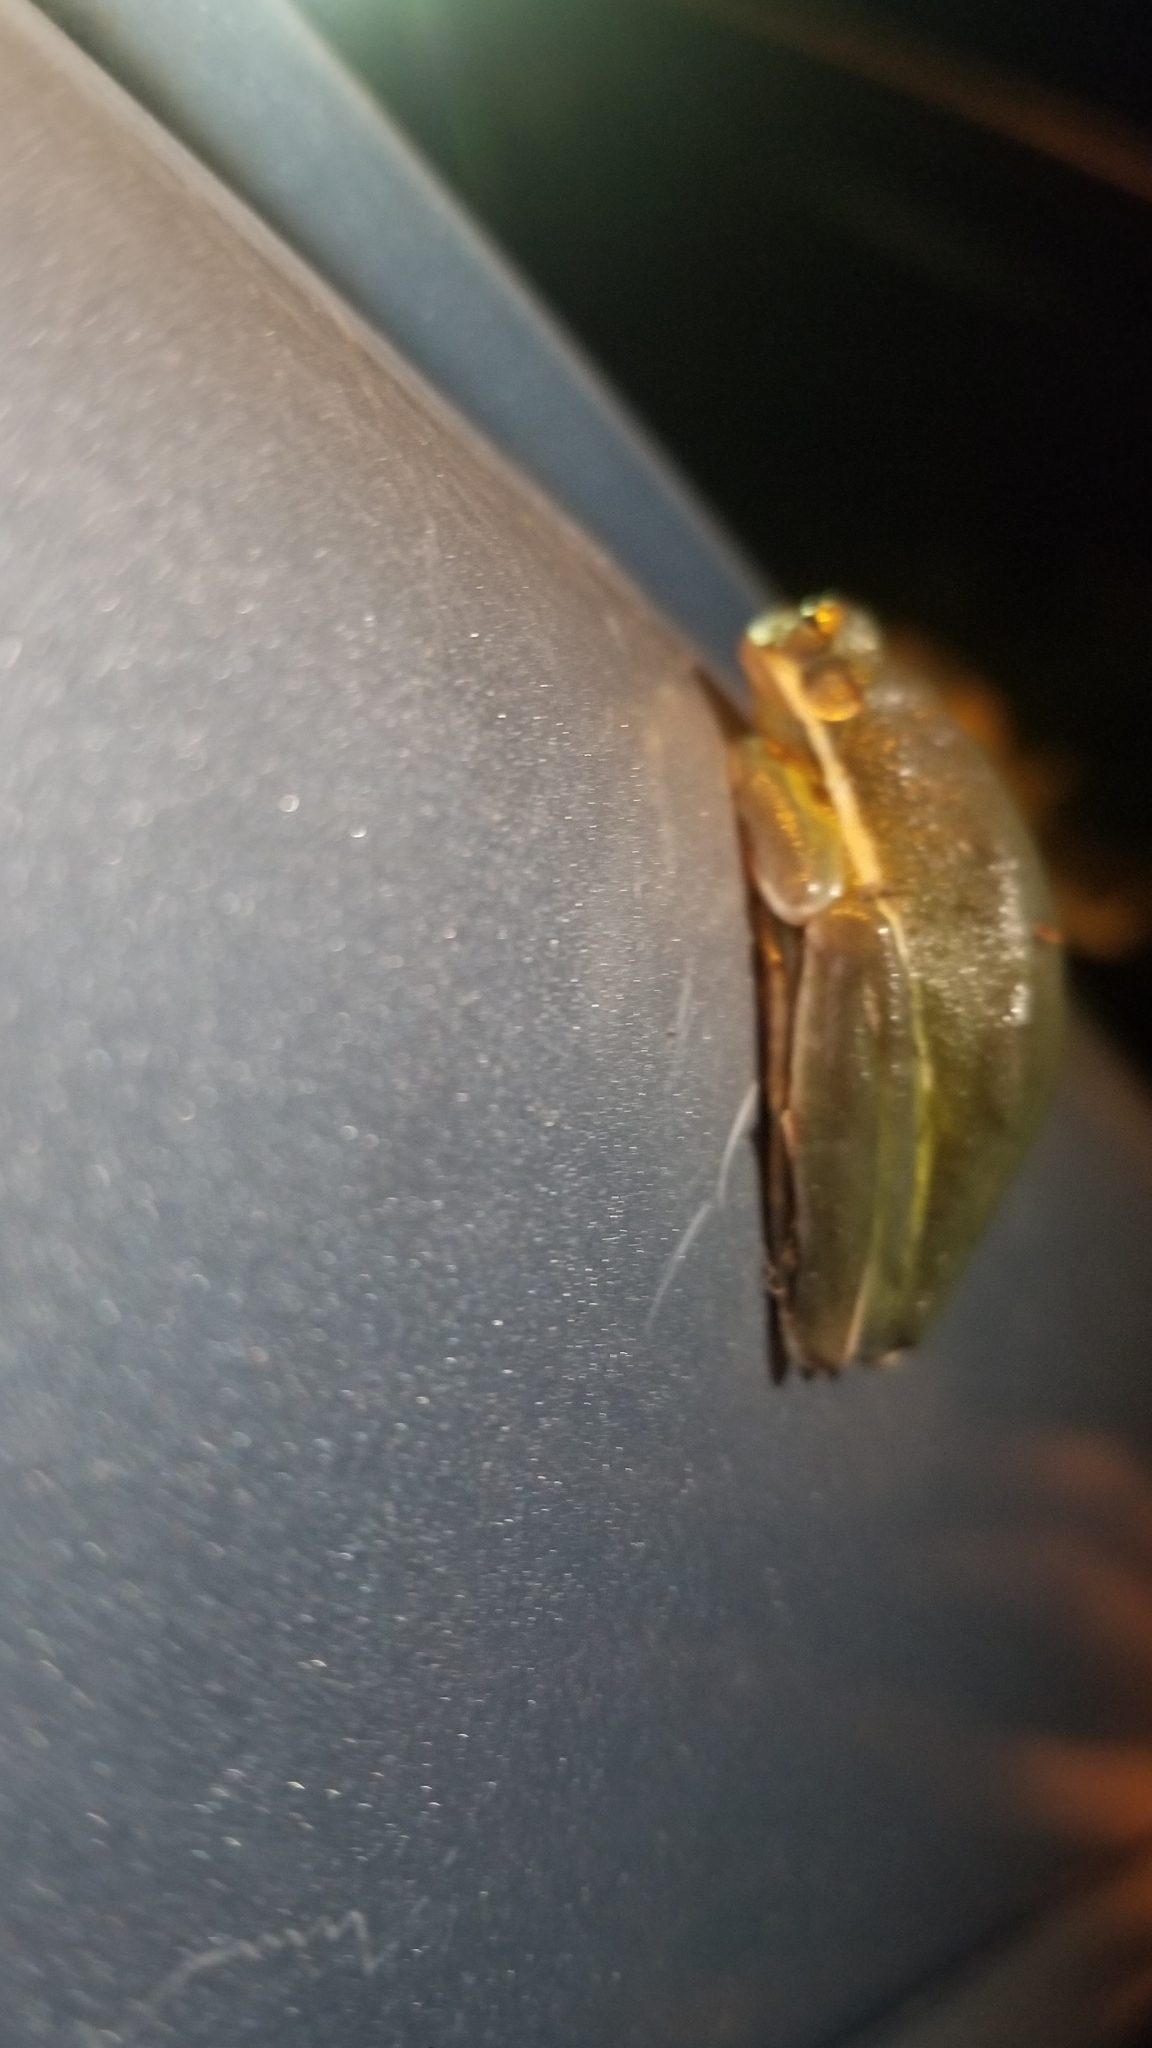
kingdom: Animalia
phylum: Chordata
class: Amphibia
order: Anura
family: Hylidae
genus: Dryophytes
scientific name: Dryophytes cinereus
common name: Green treefrog
